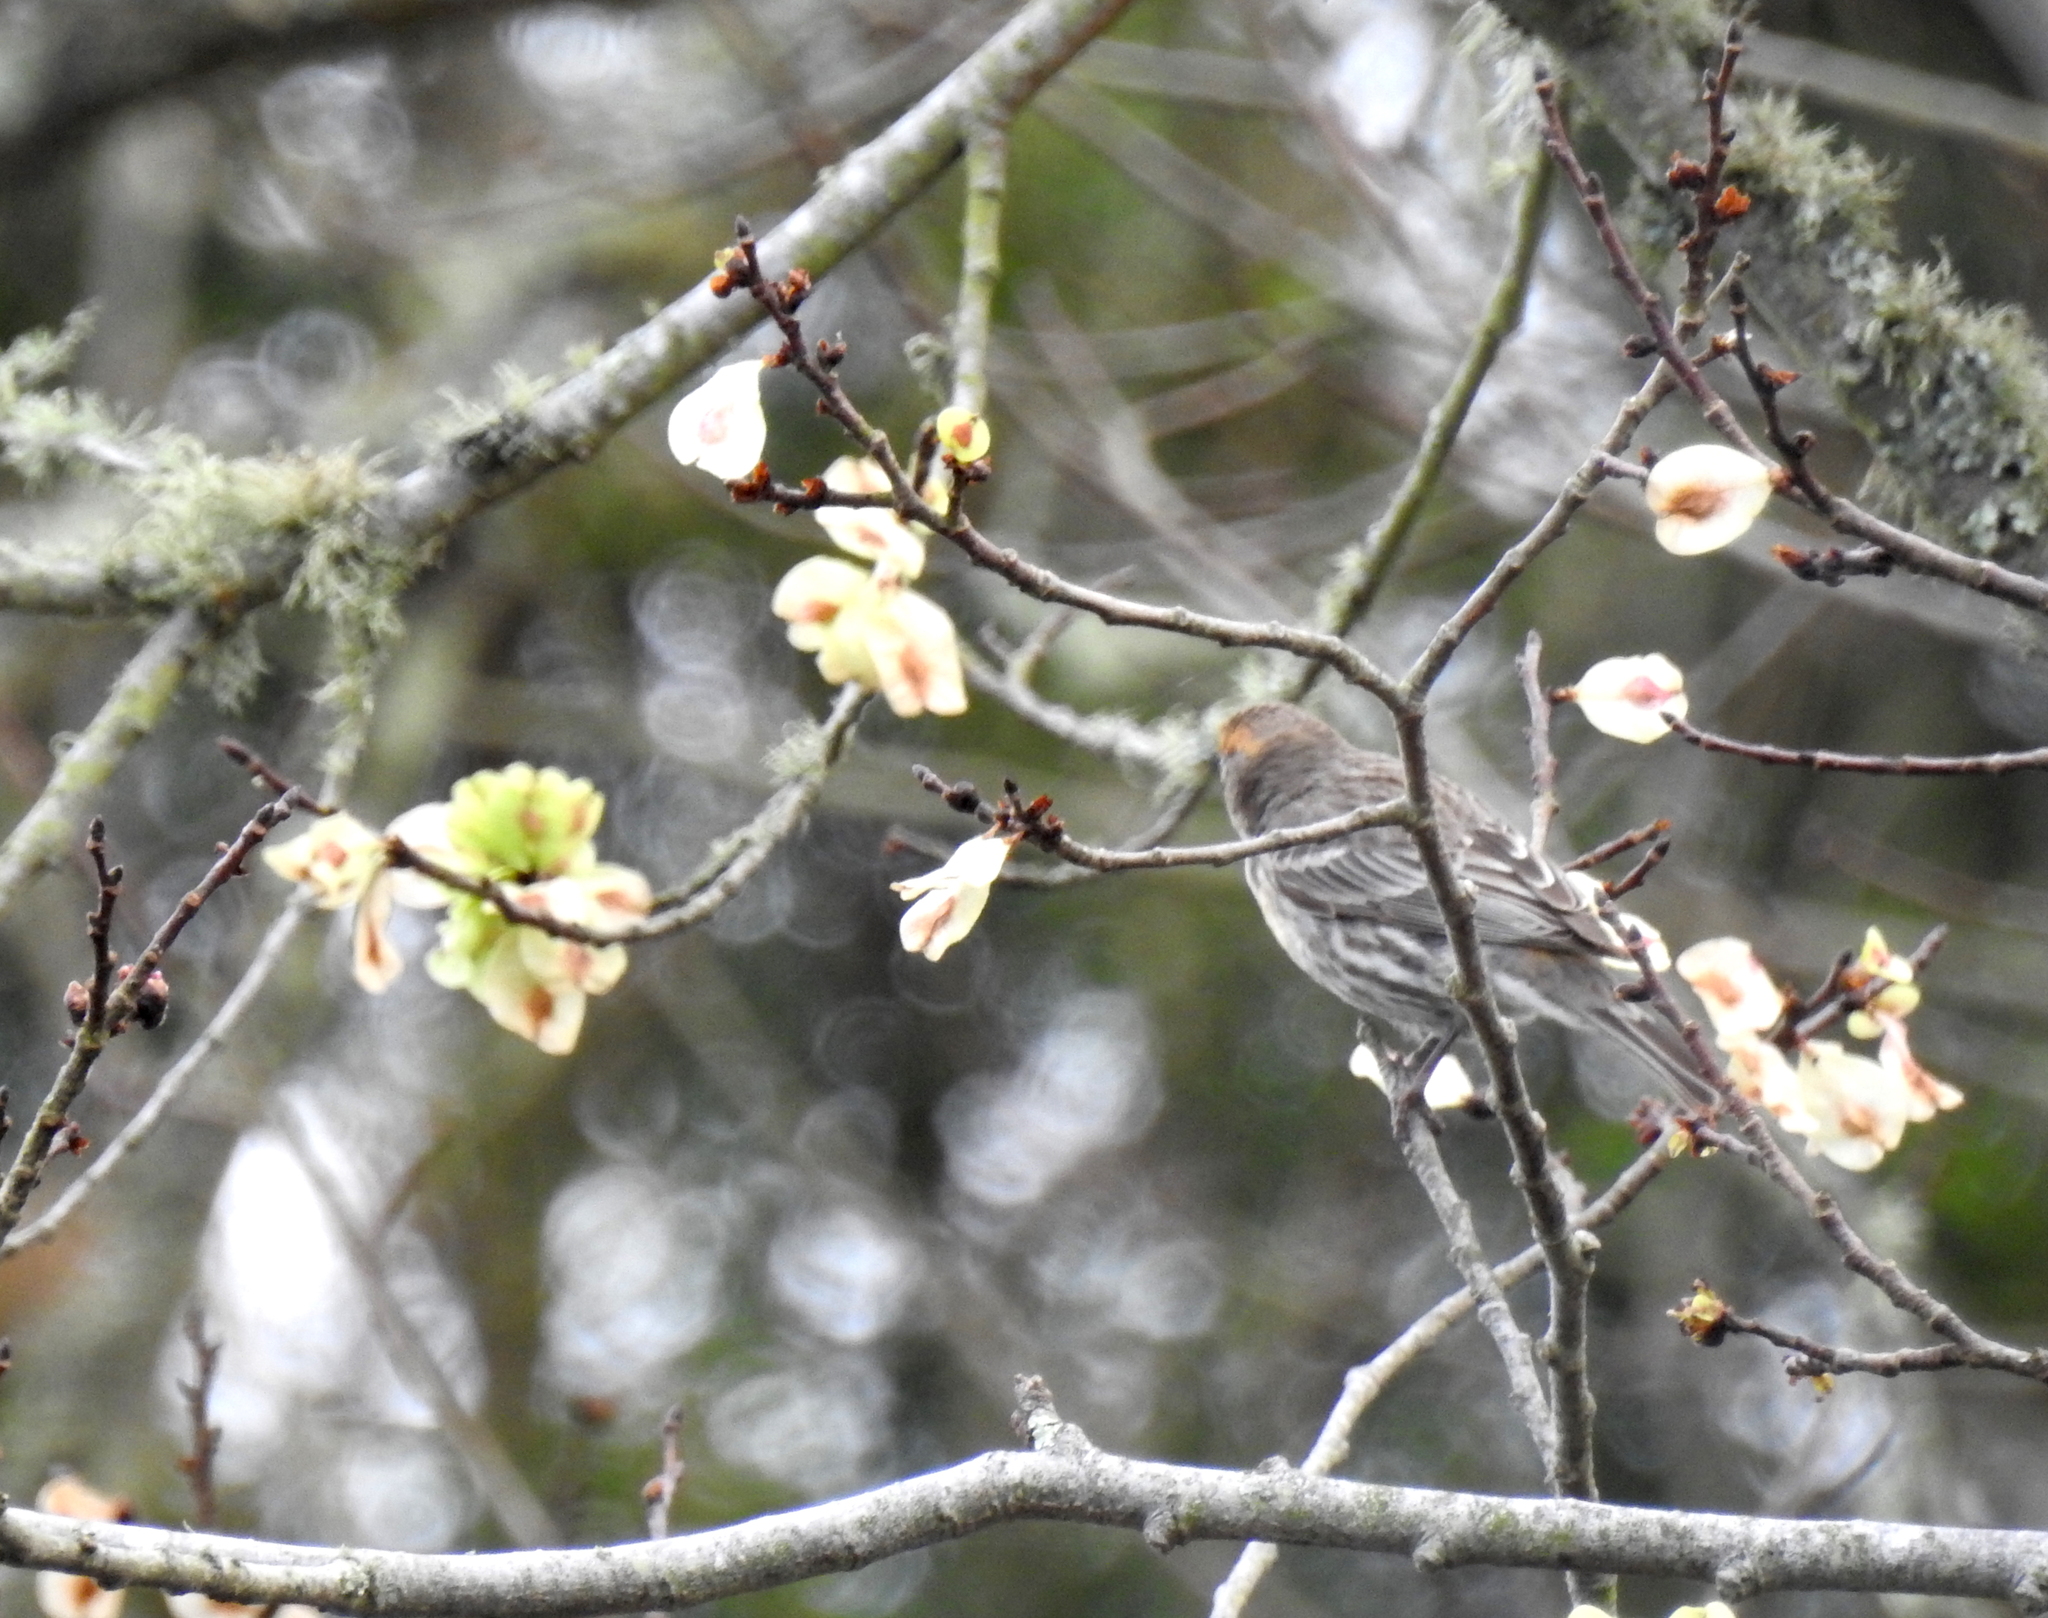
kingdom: Animalia
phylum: Chordata
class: Aves
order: Passeriformes
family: Fringillidae
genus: Haemorhous
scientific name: Haemorhous mexicanus
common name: House finch
